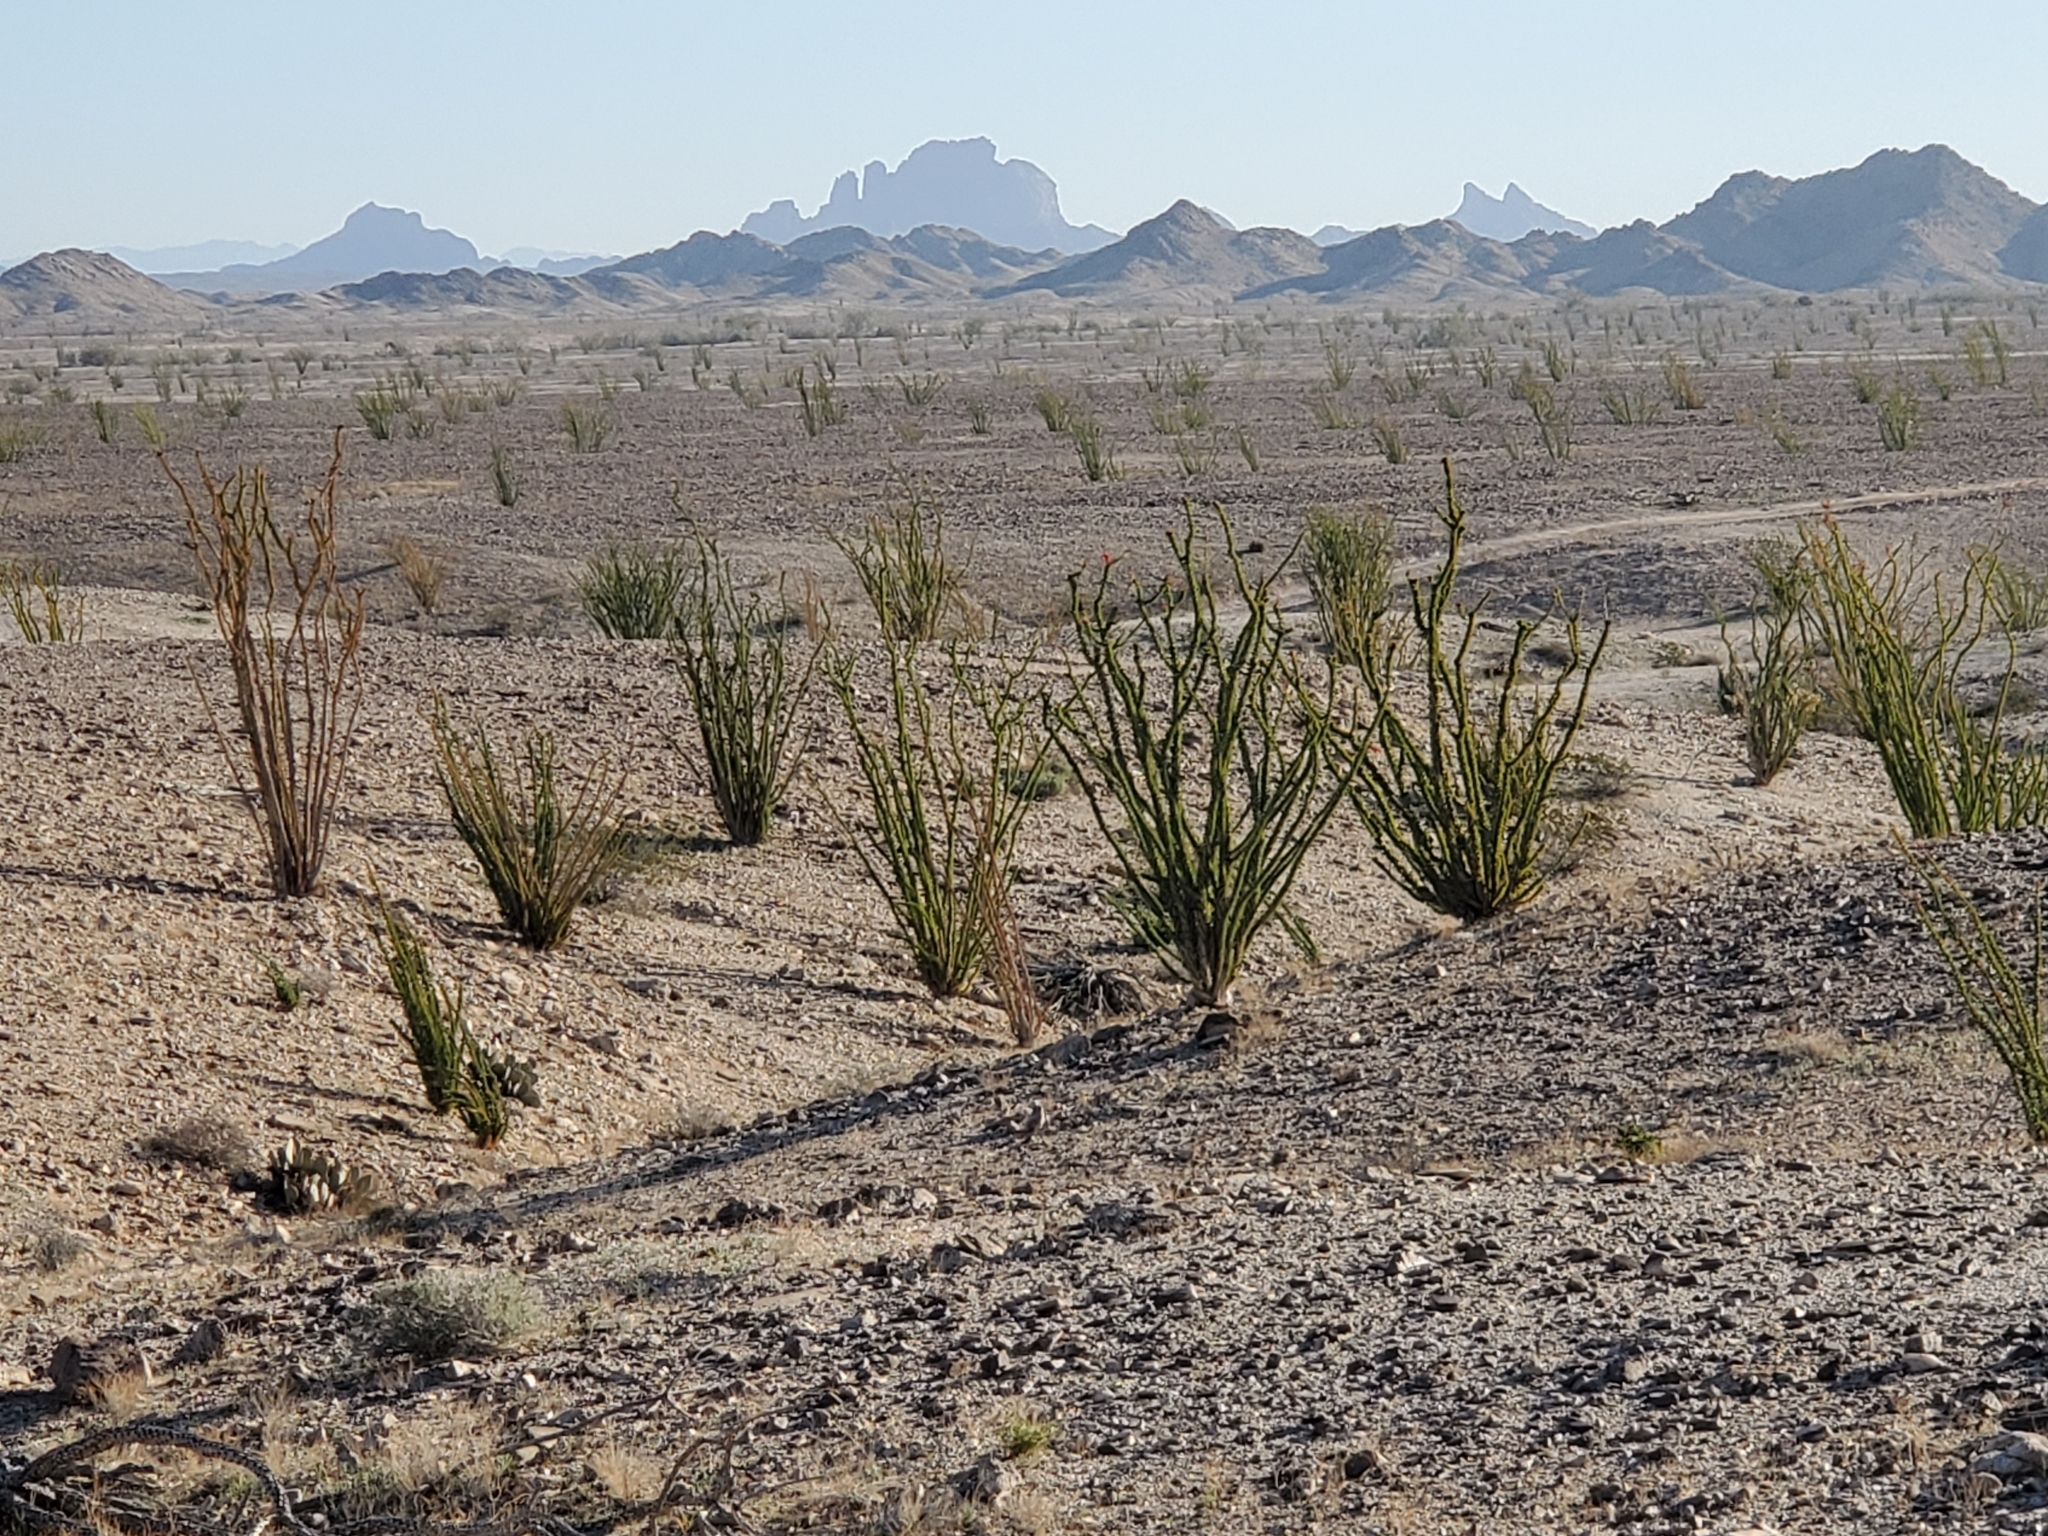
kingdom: Plantae
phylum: Tracheophyta
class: Magnoliopsida
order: Ericales
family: Fouquieriaceae
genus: Fouquieria
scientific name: Fouquieria splendens
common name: Vine-cactus
